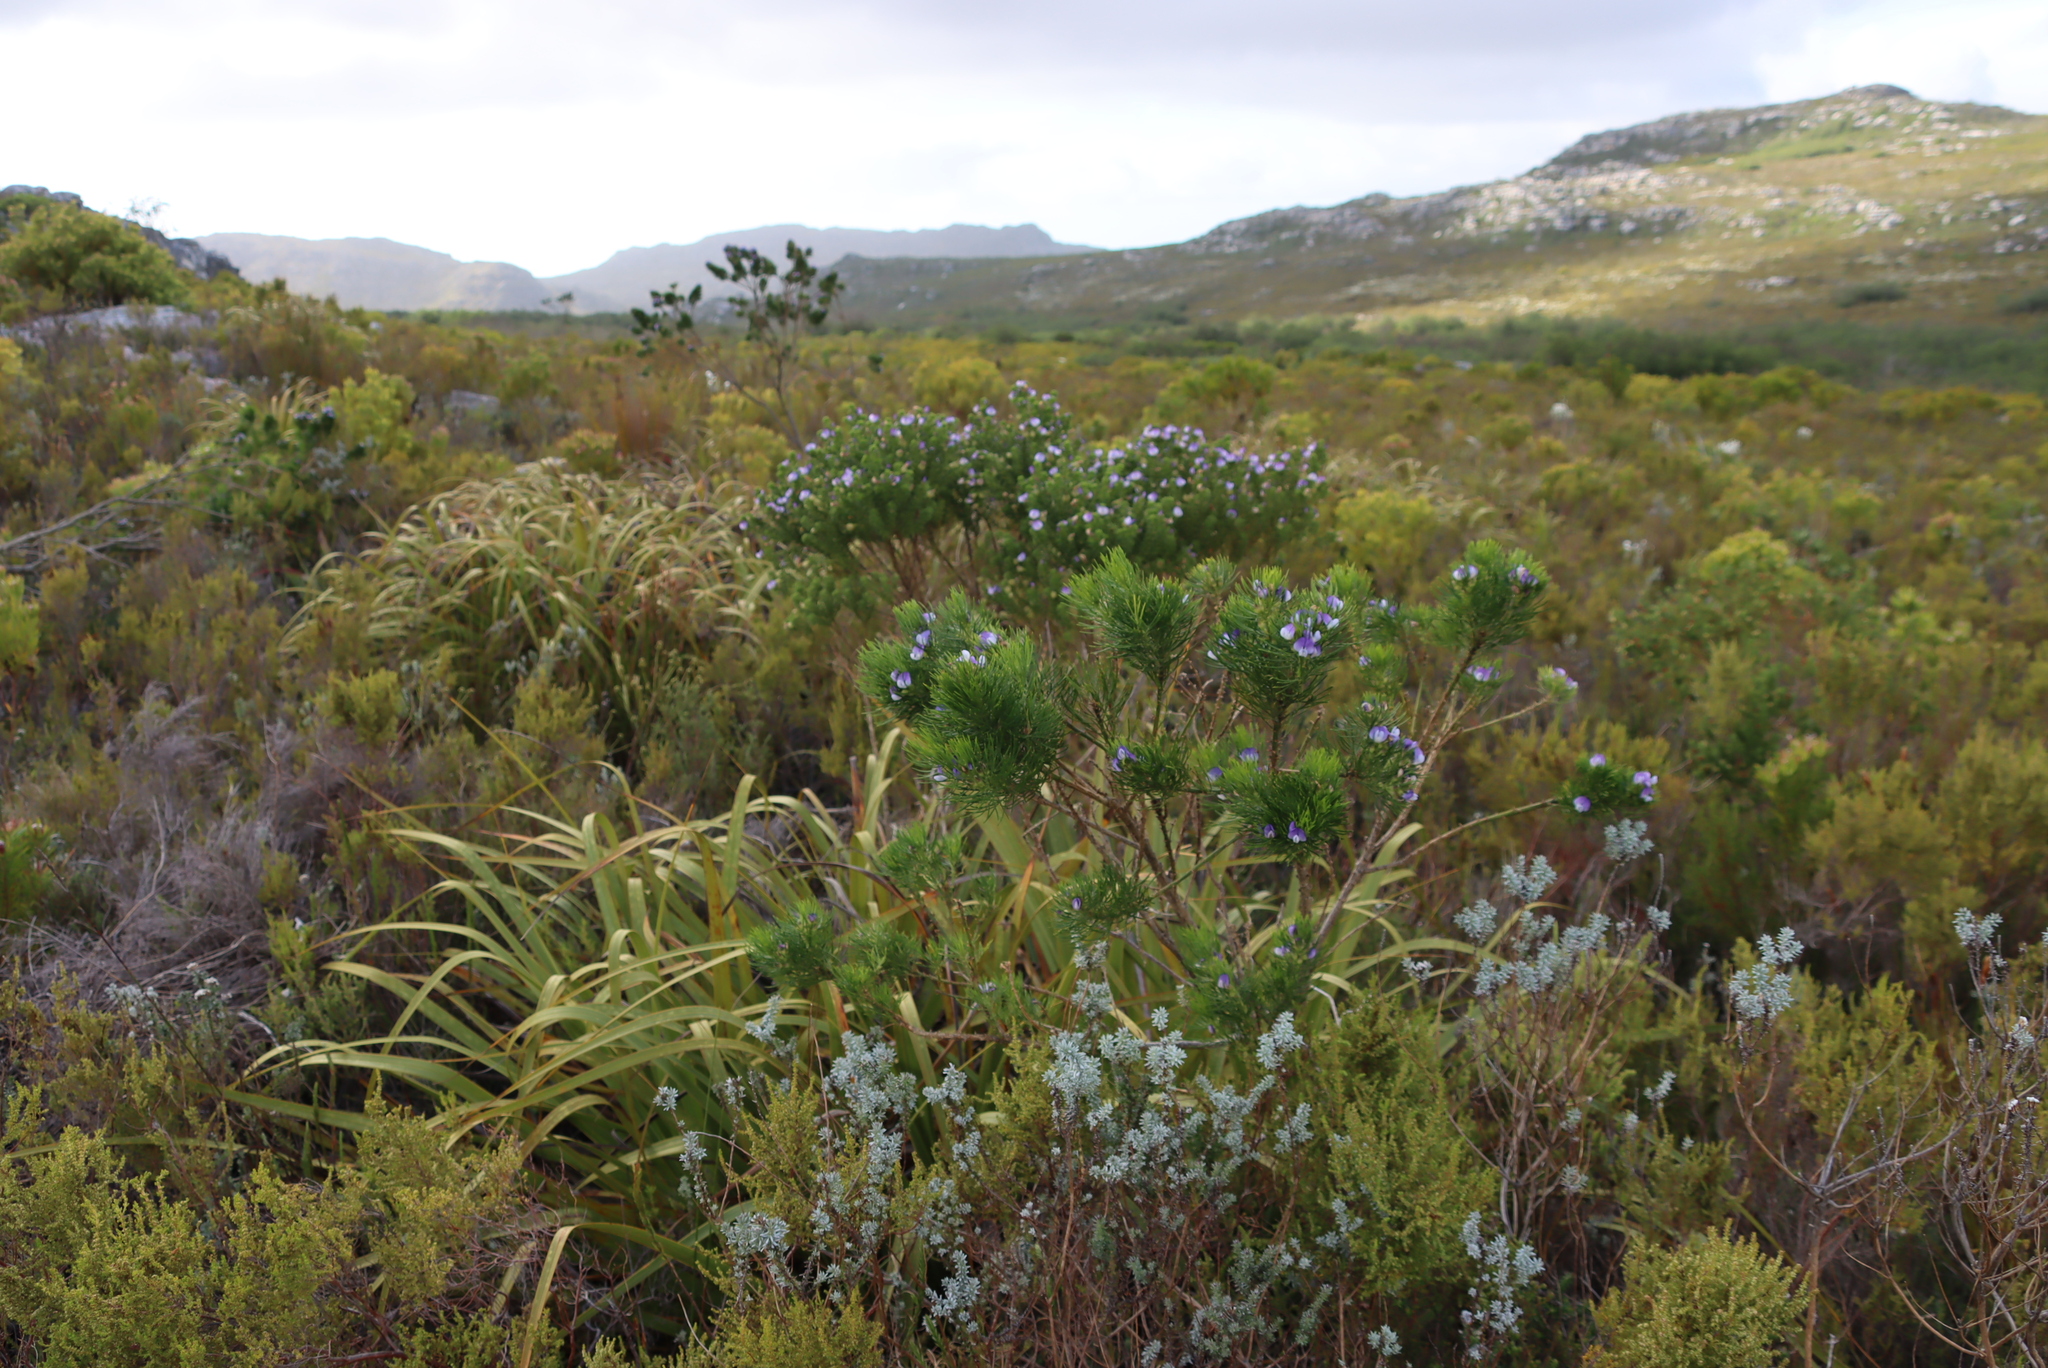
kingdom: Plantae
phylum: Tracheophyta
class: Magnoliopsida
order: Fabales
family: Fabaceae
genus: Psoralea
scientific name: Psoralea pinnata
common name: African scurfpea
